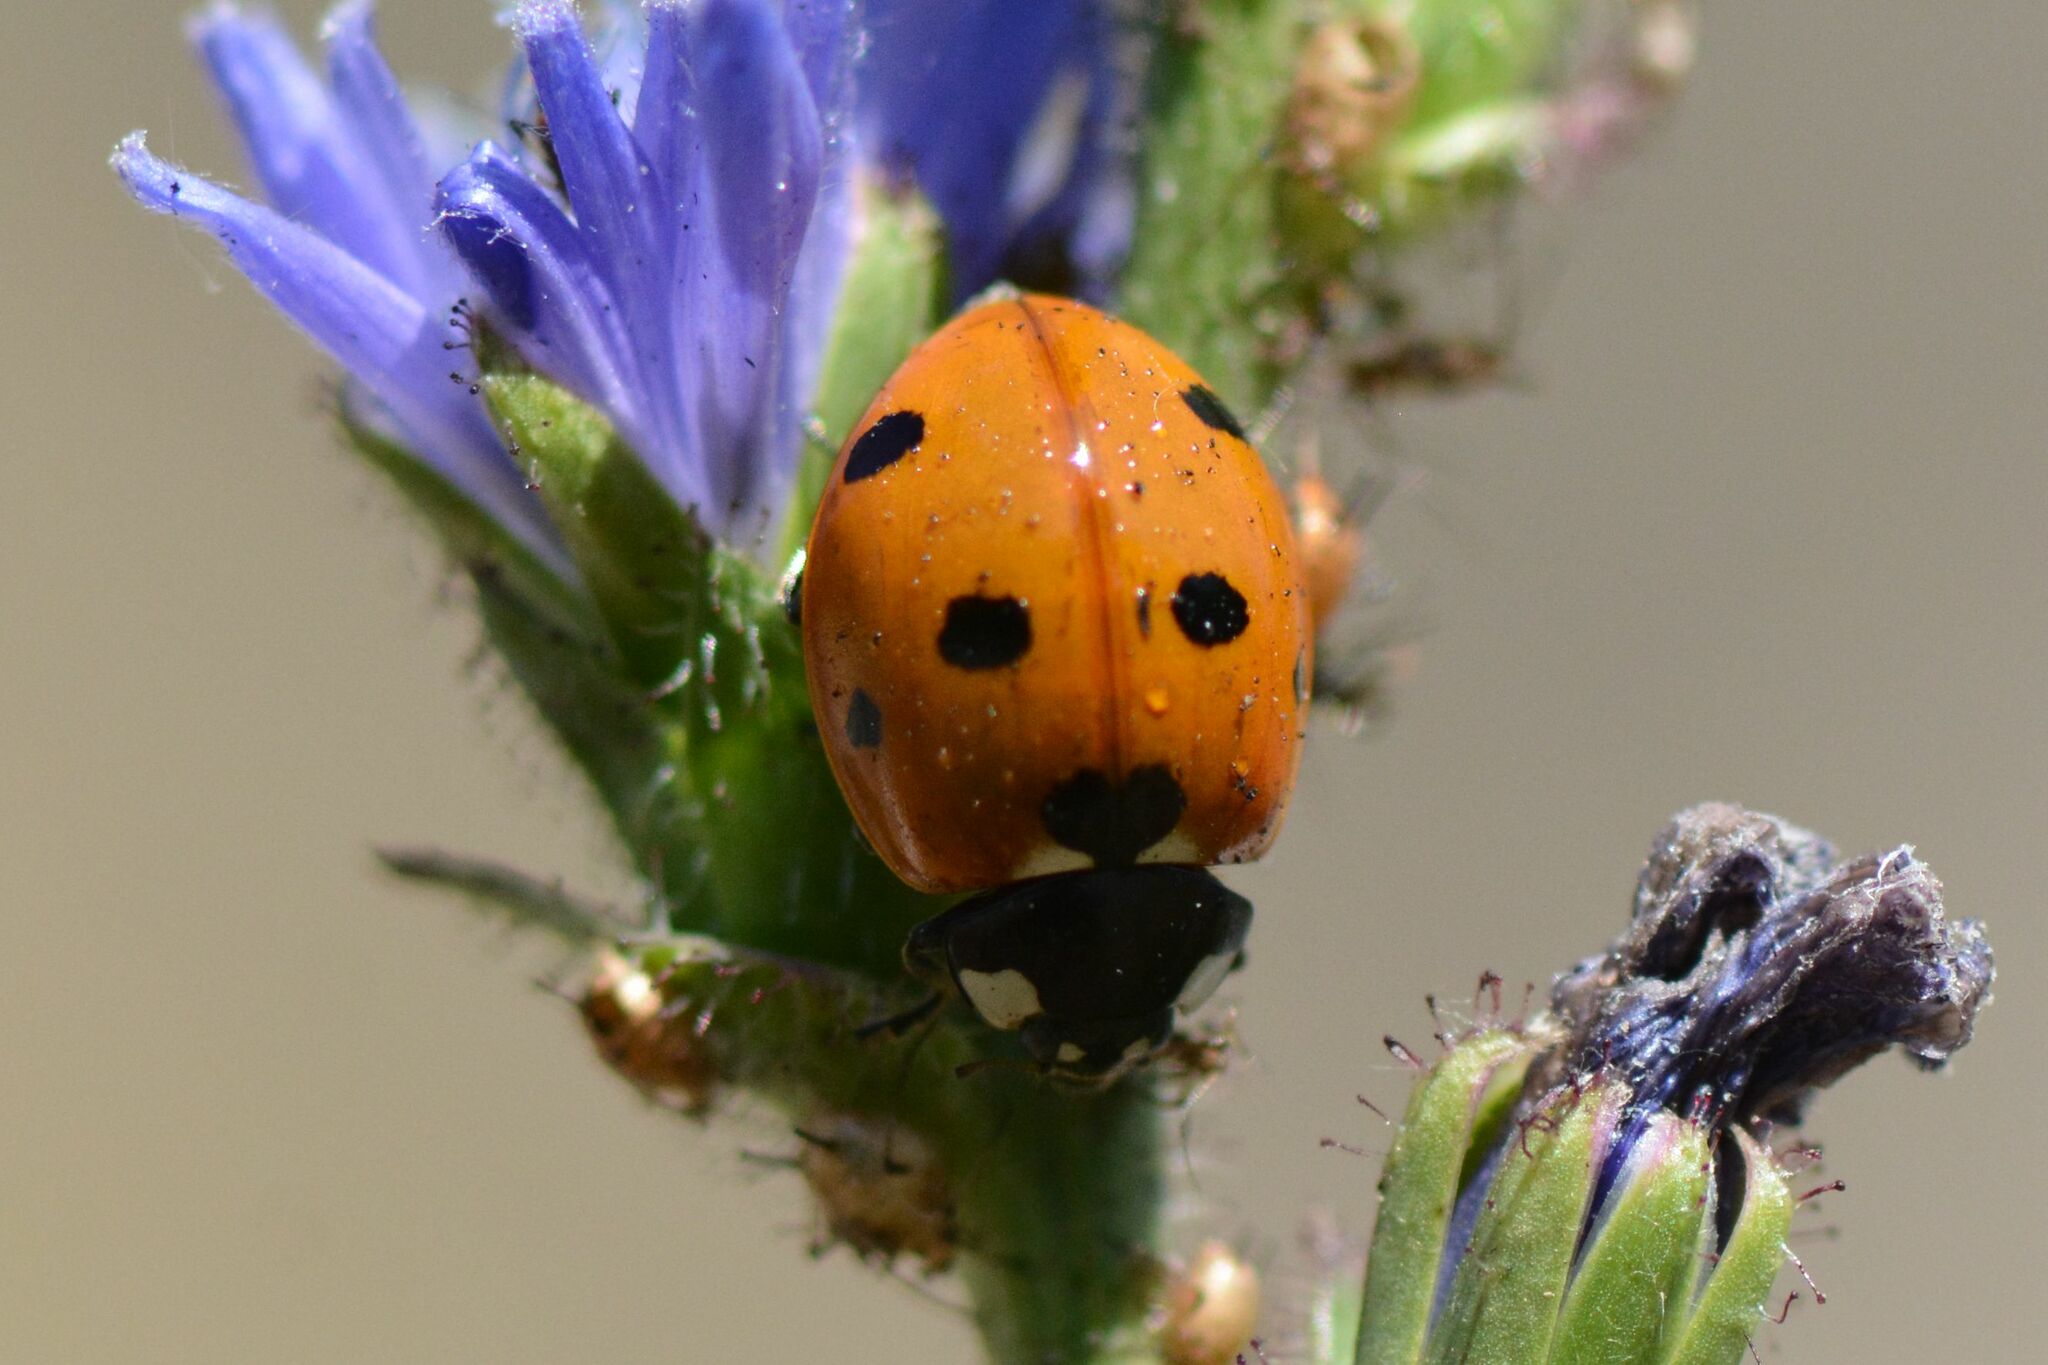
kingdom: Animalia
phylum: Arthropoda
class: Insecta
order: Coleoptera
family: Coccinellidae
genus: Coccinella
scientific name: Coccinella septempunctata
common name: Sevenspotted lady beetle
